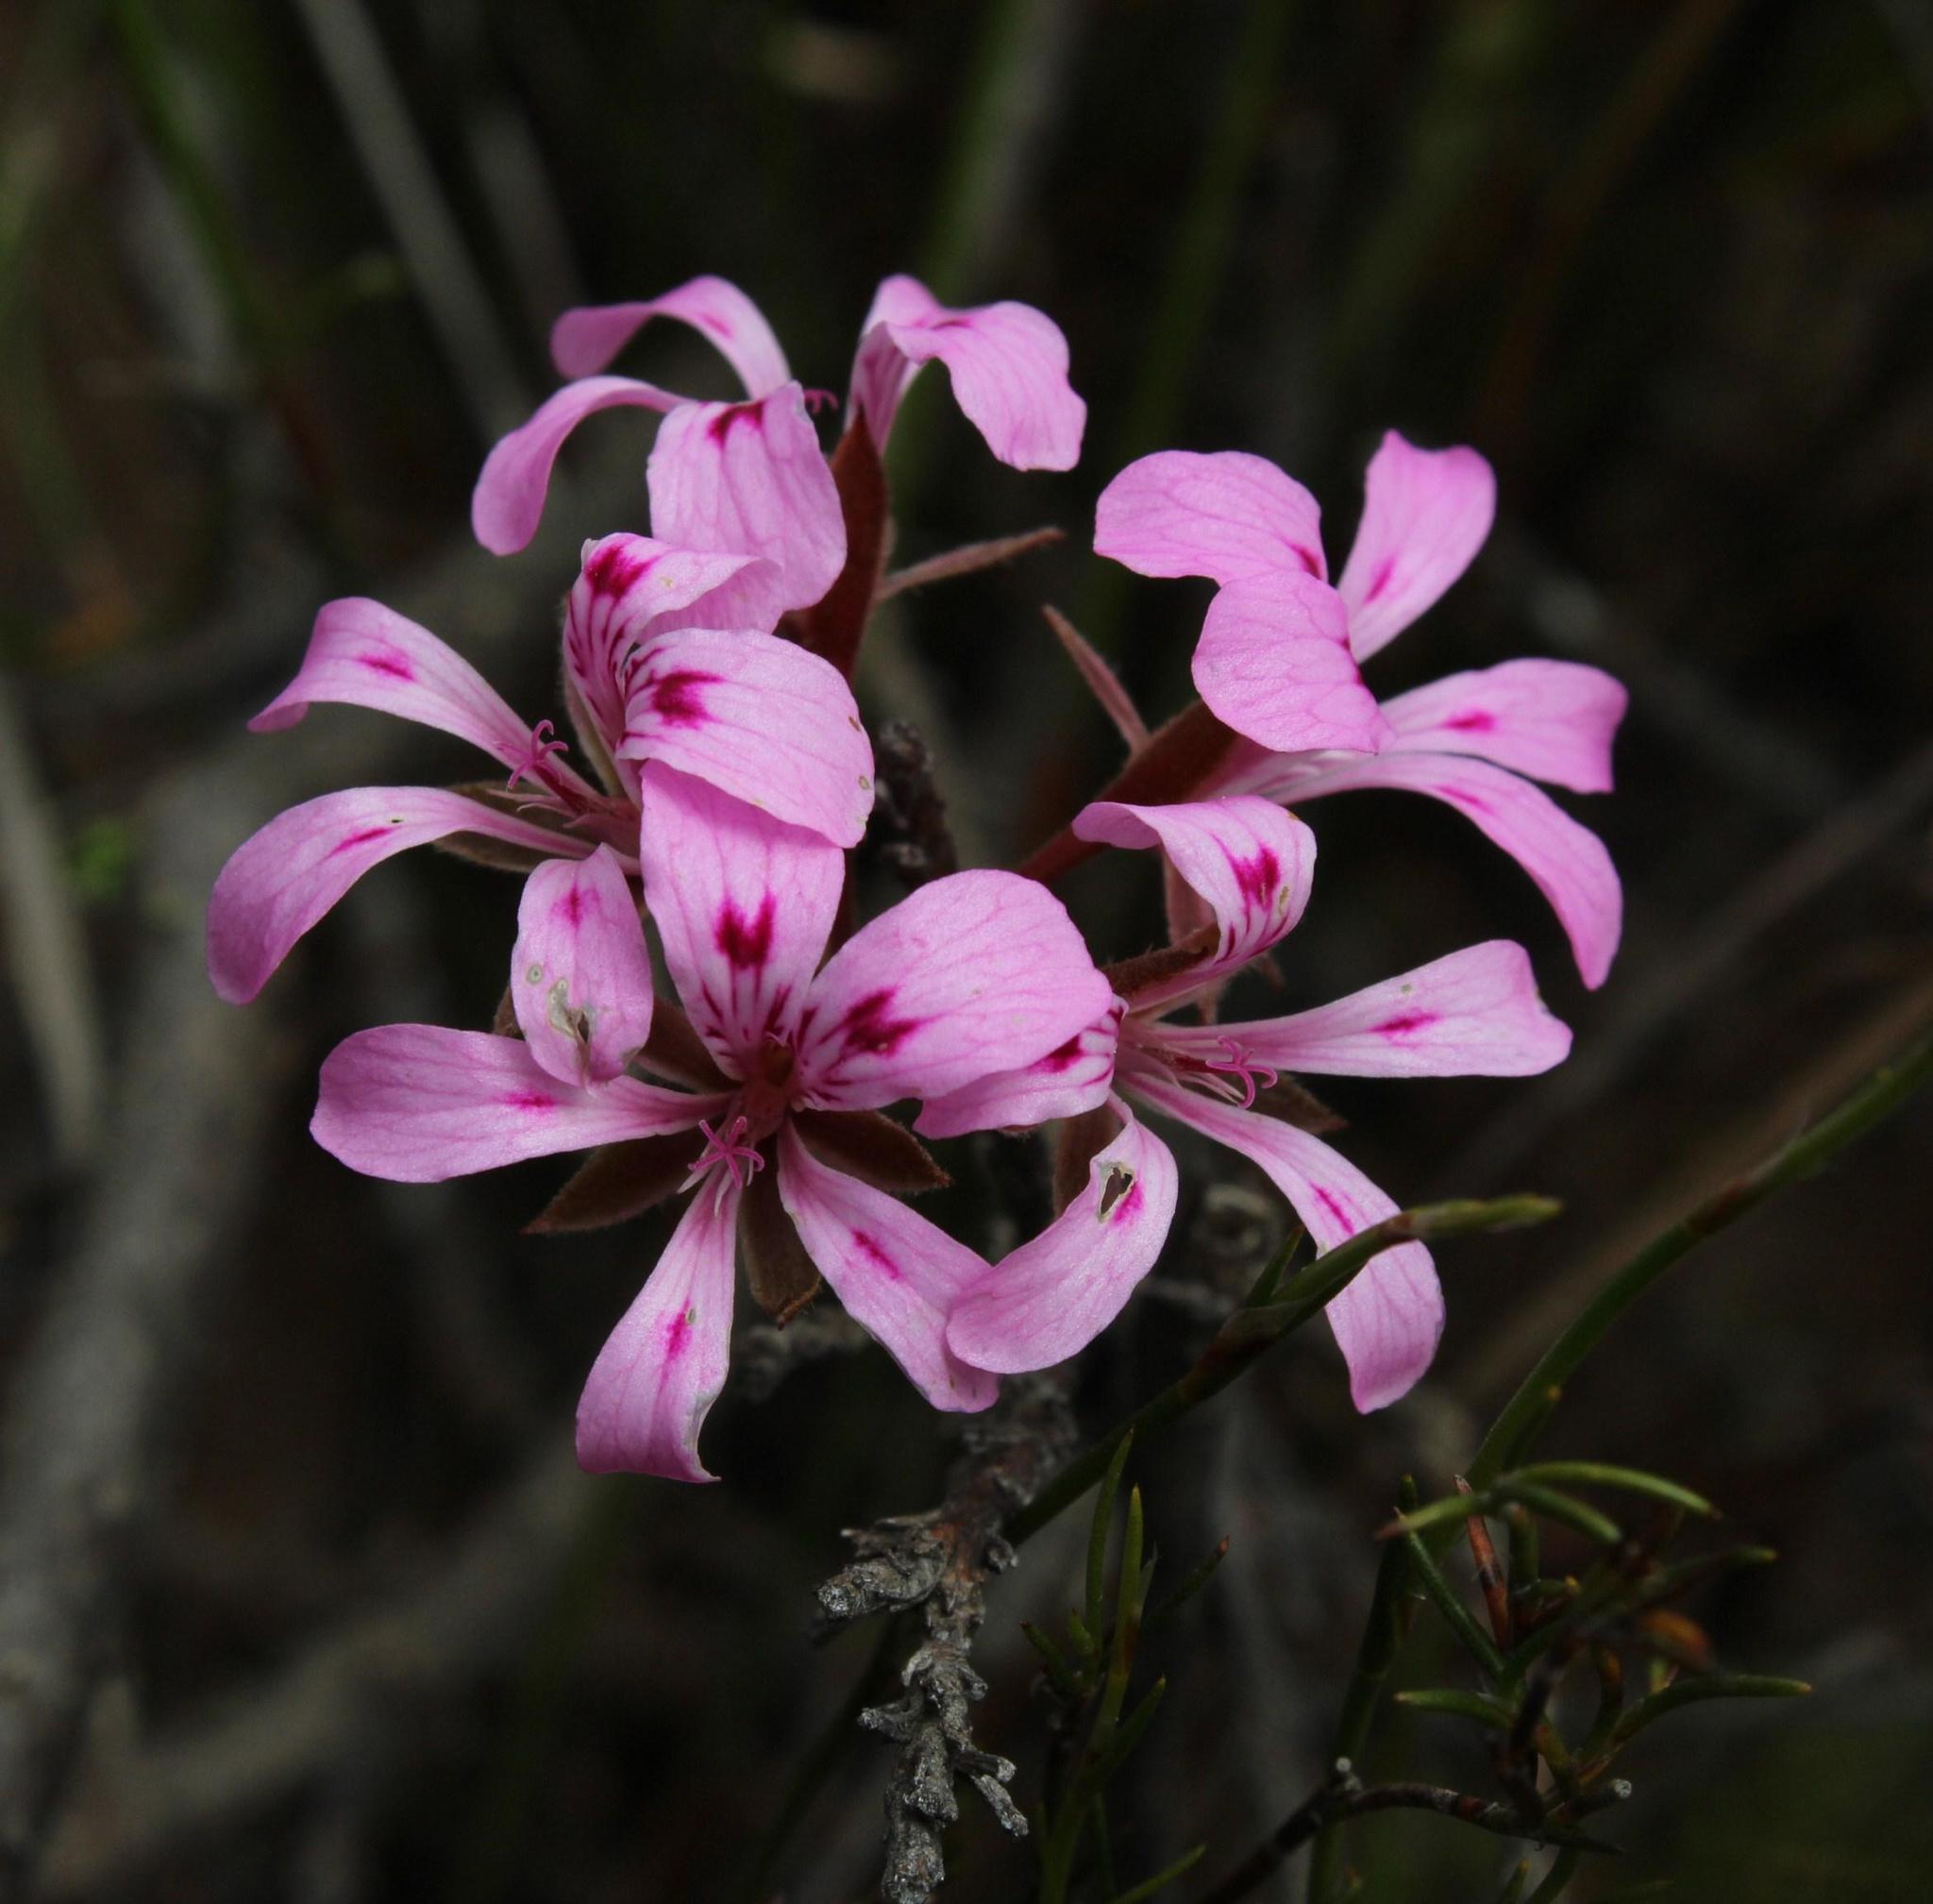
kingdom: Plantae
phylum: Tracheophyta
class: Magnoliopsida
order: Geraniales
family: Geraniaceae
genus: Pelargonium
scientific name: Pelargonium chelidonium
